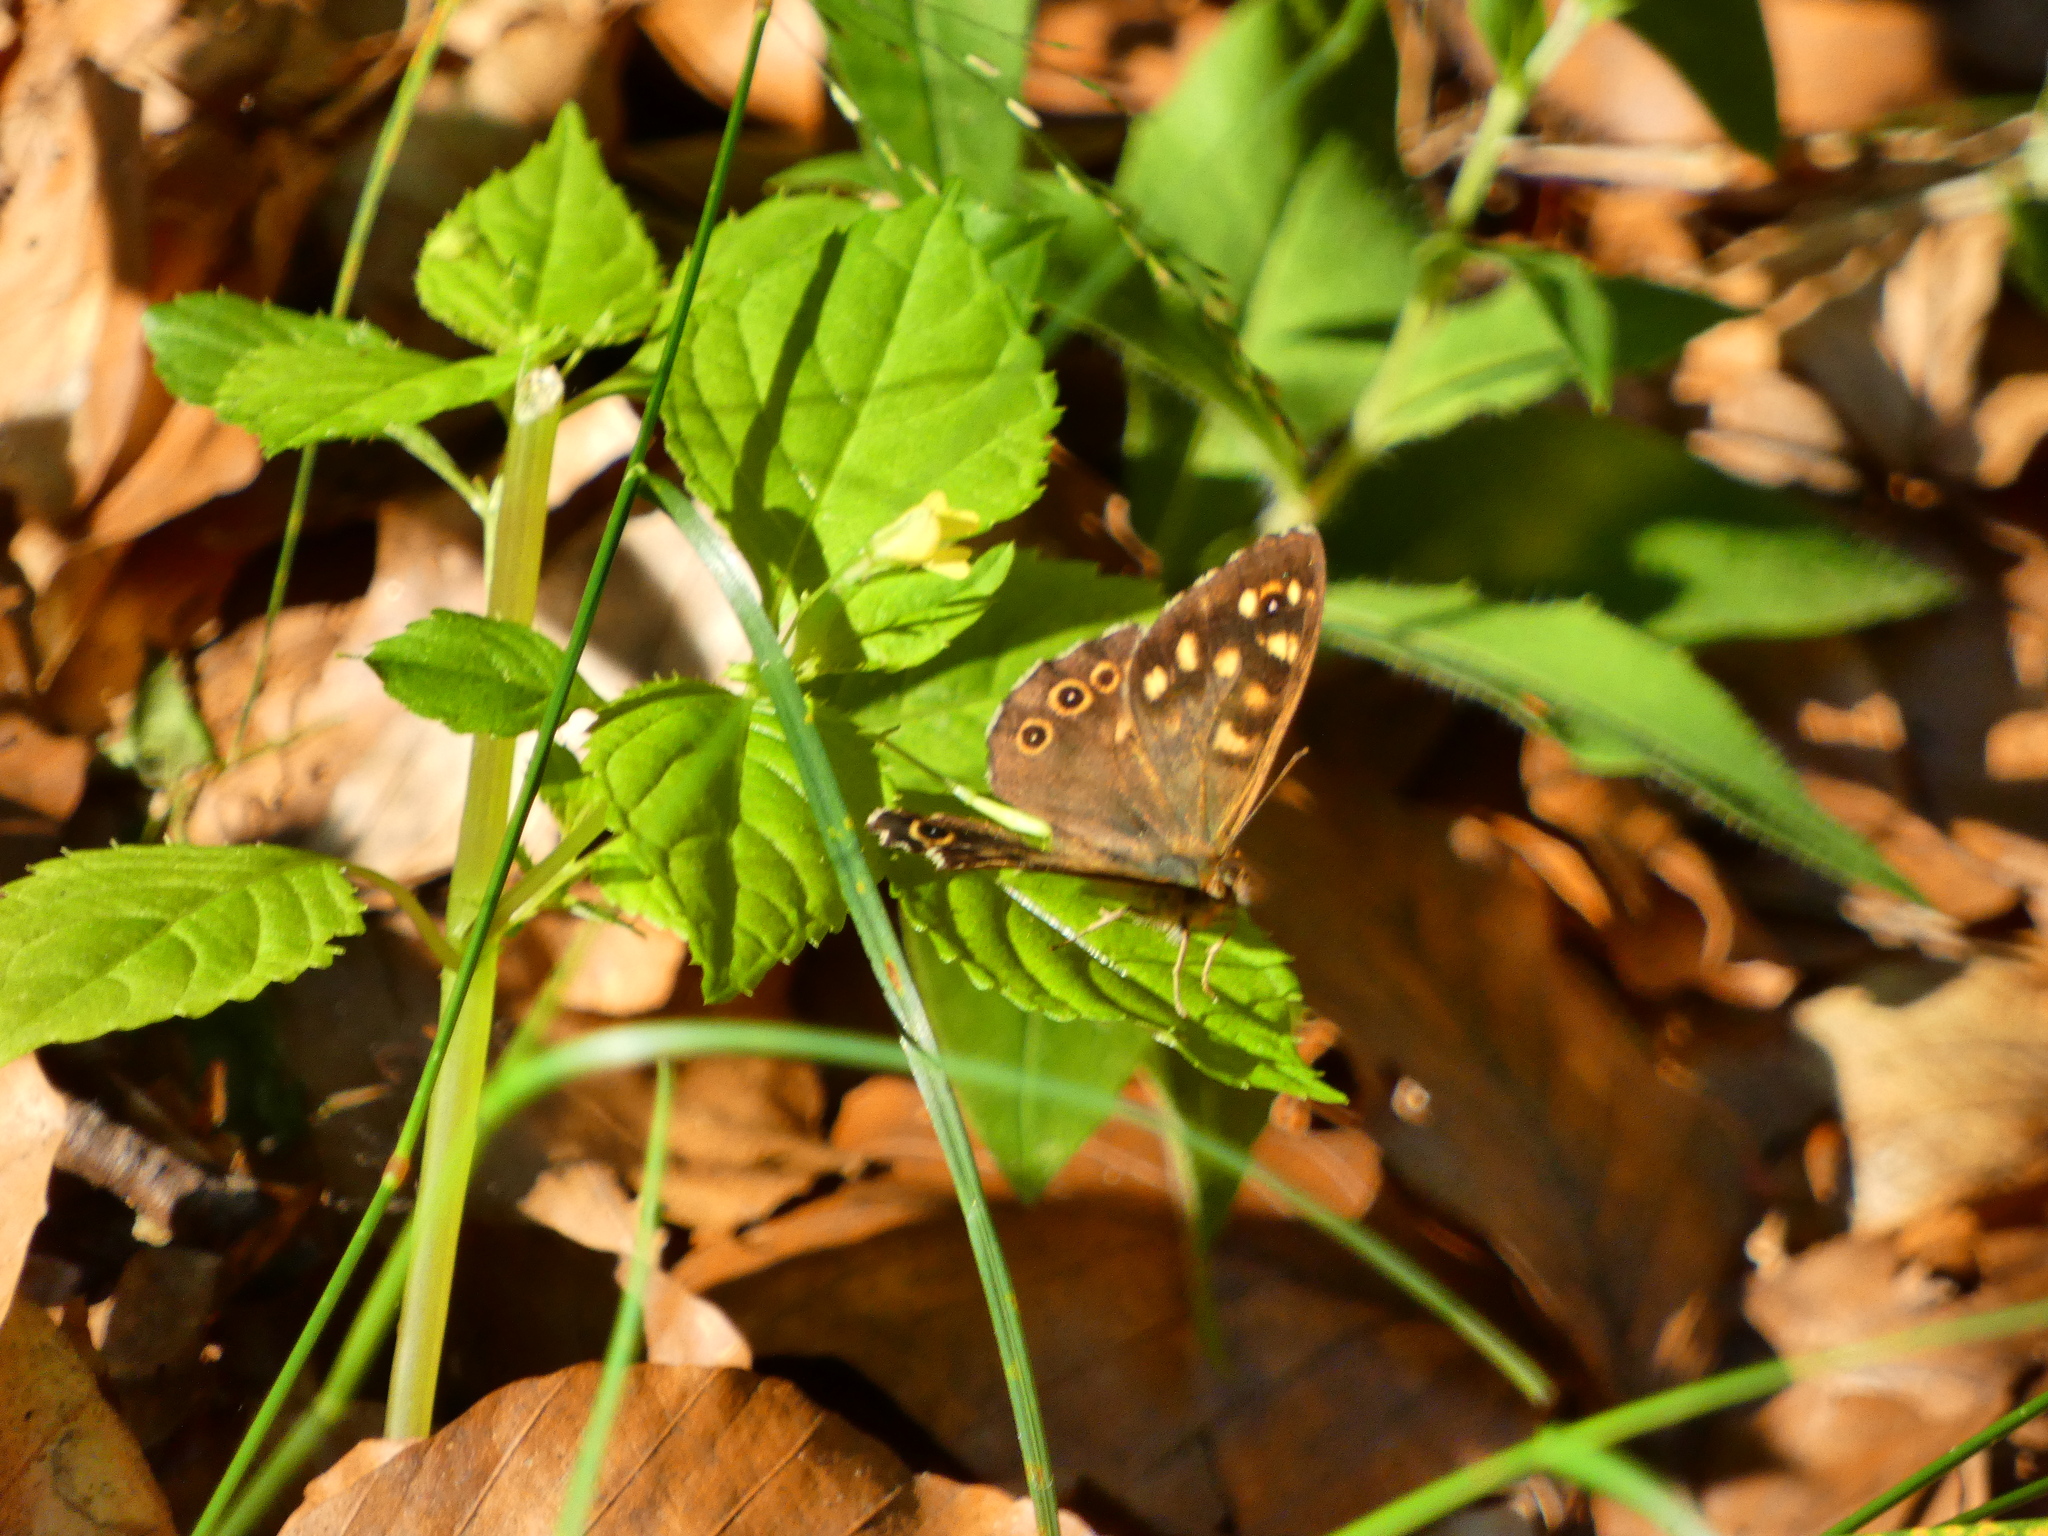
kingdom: Animalia
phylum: Arthropoda
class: Insecta
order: Lepidoptera
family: Nymphalidae
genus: Pararge
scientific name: Pararge aegeria
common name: Speckled wood
